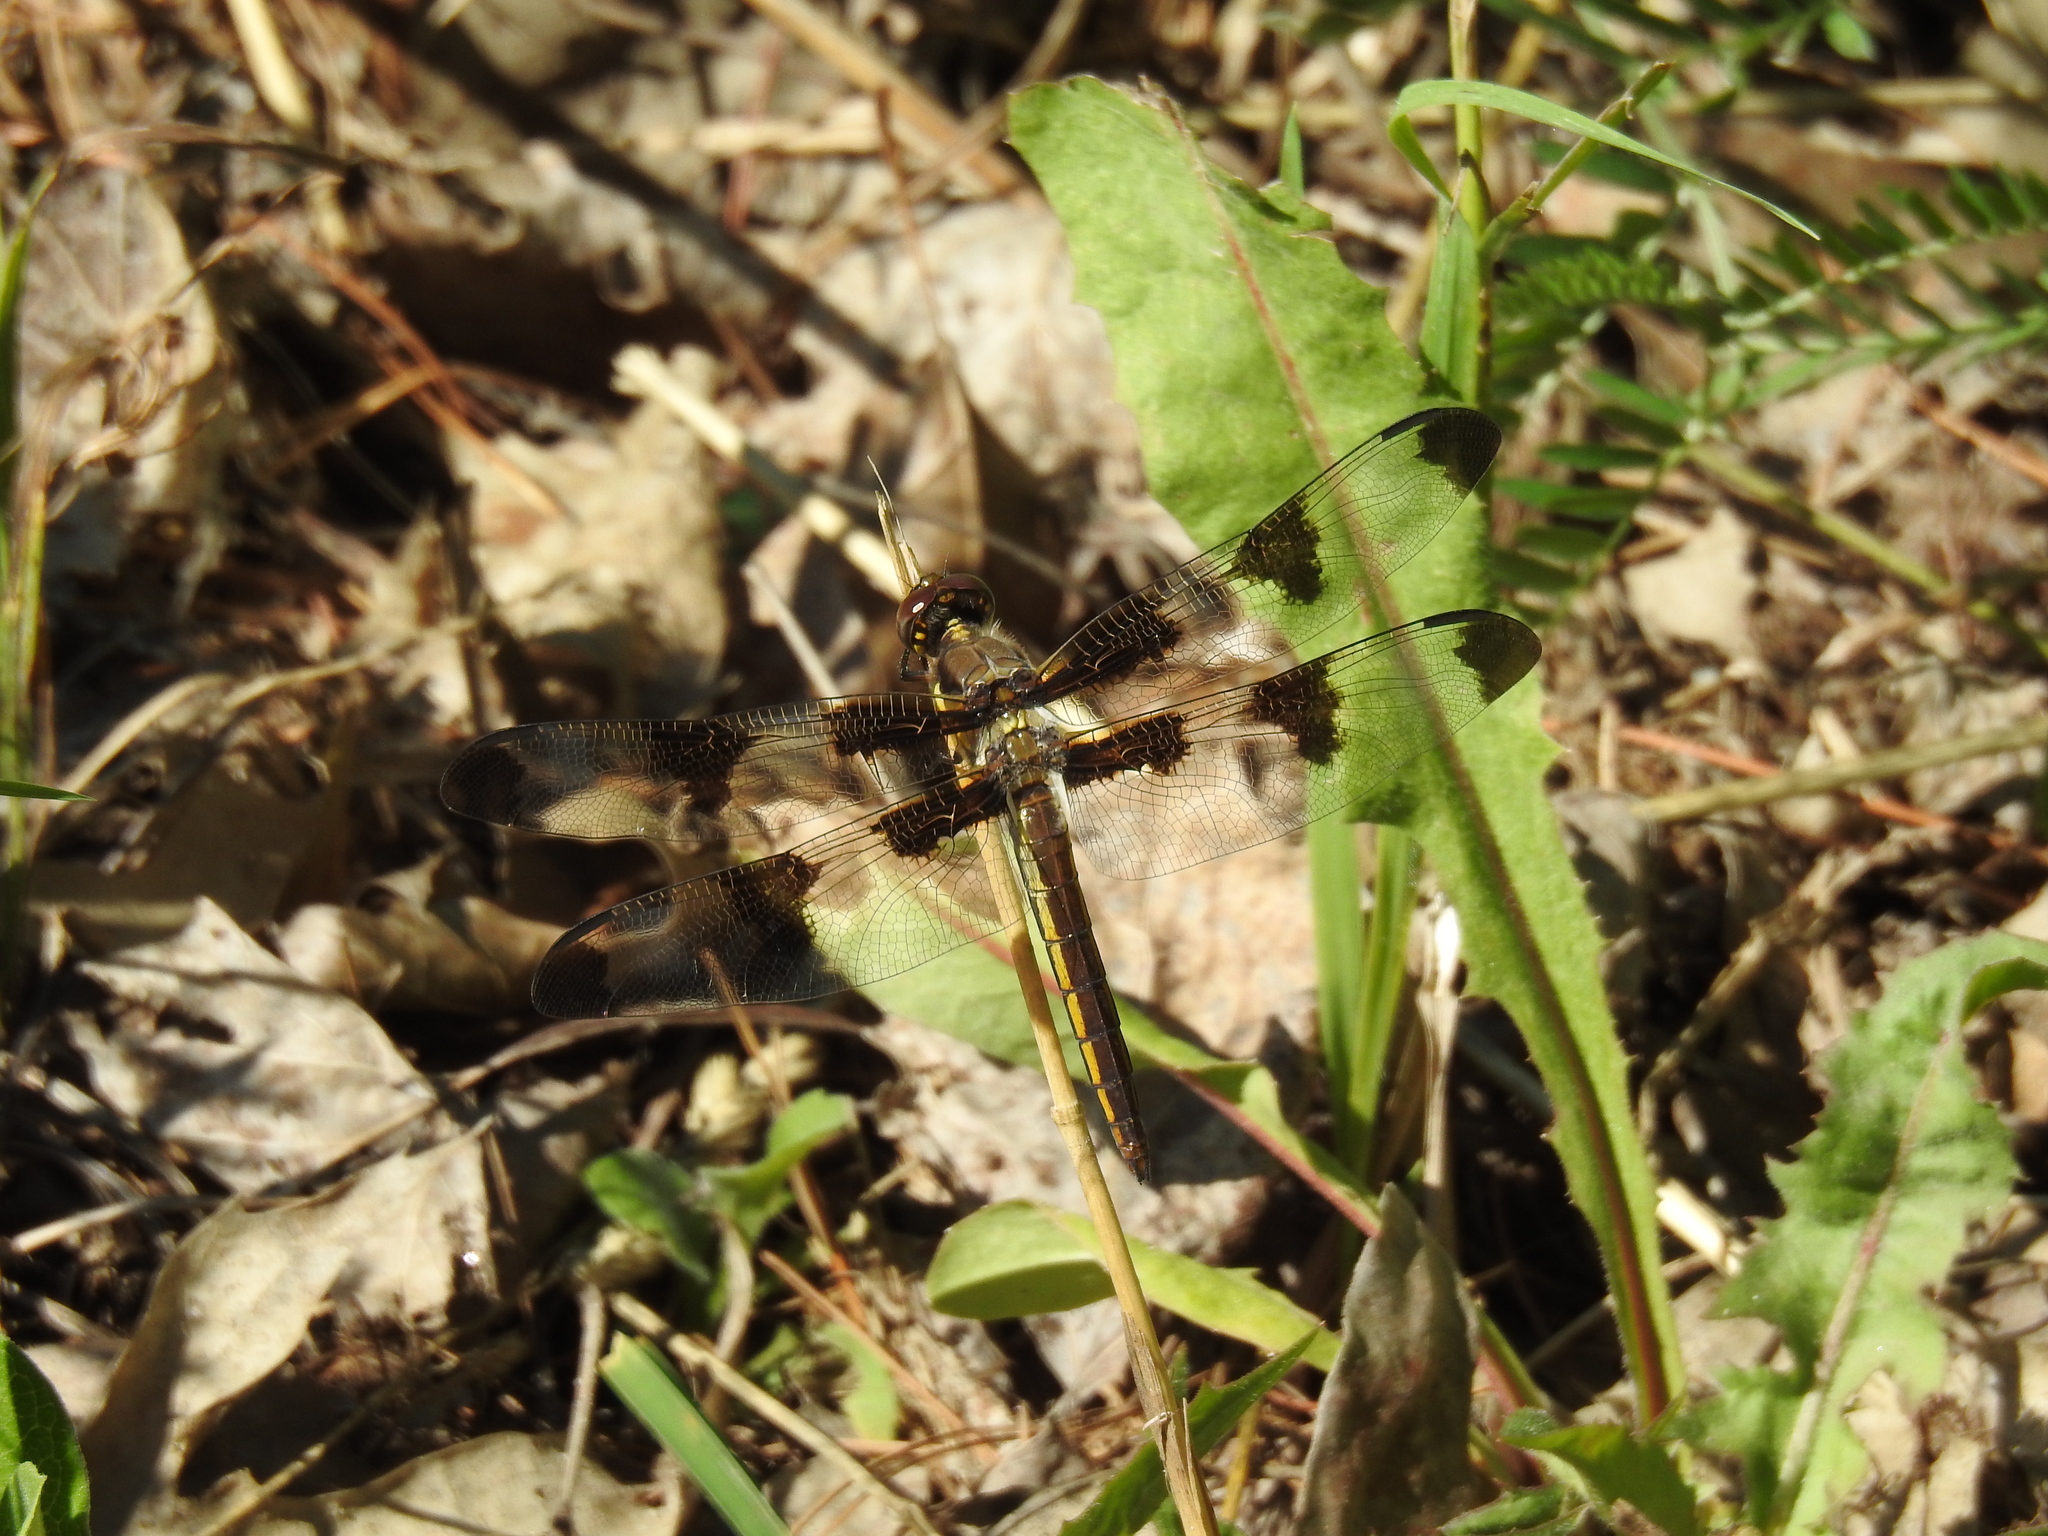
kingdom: Animalia
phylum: Arthropoda
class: Insecta
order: Odonata
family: Libellulidae
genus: Libellula
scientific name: Libellula pulchella
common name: Twelve-spotted skimmer
